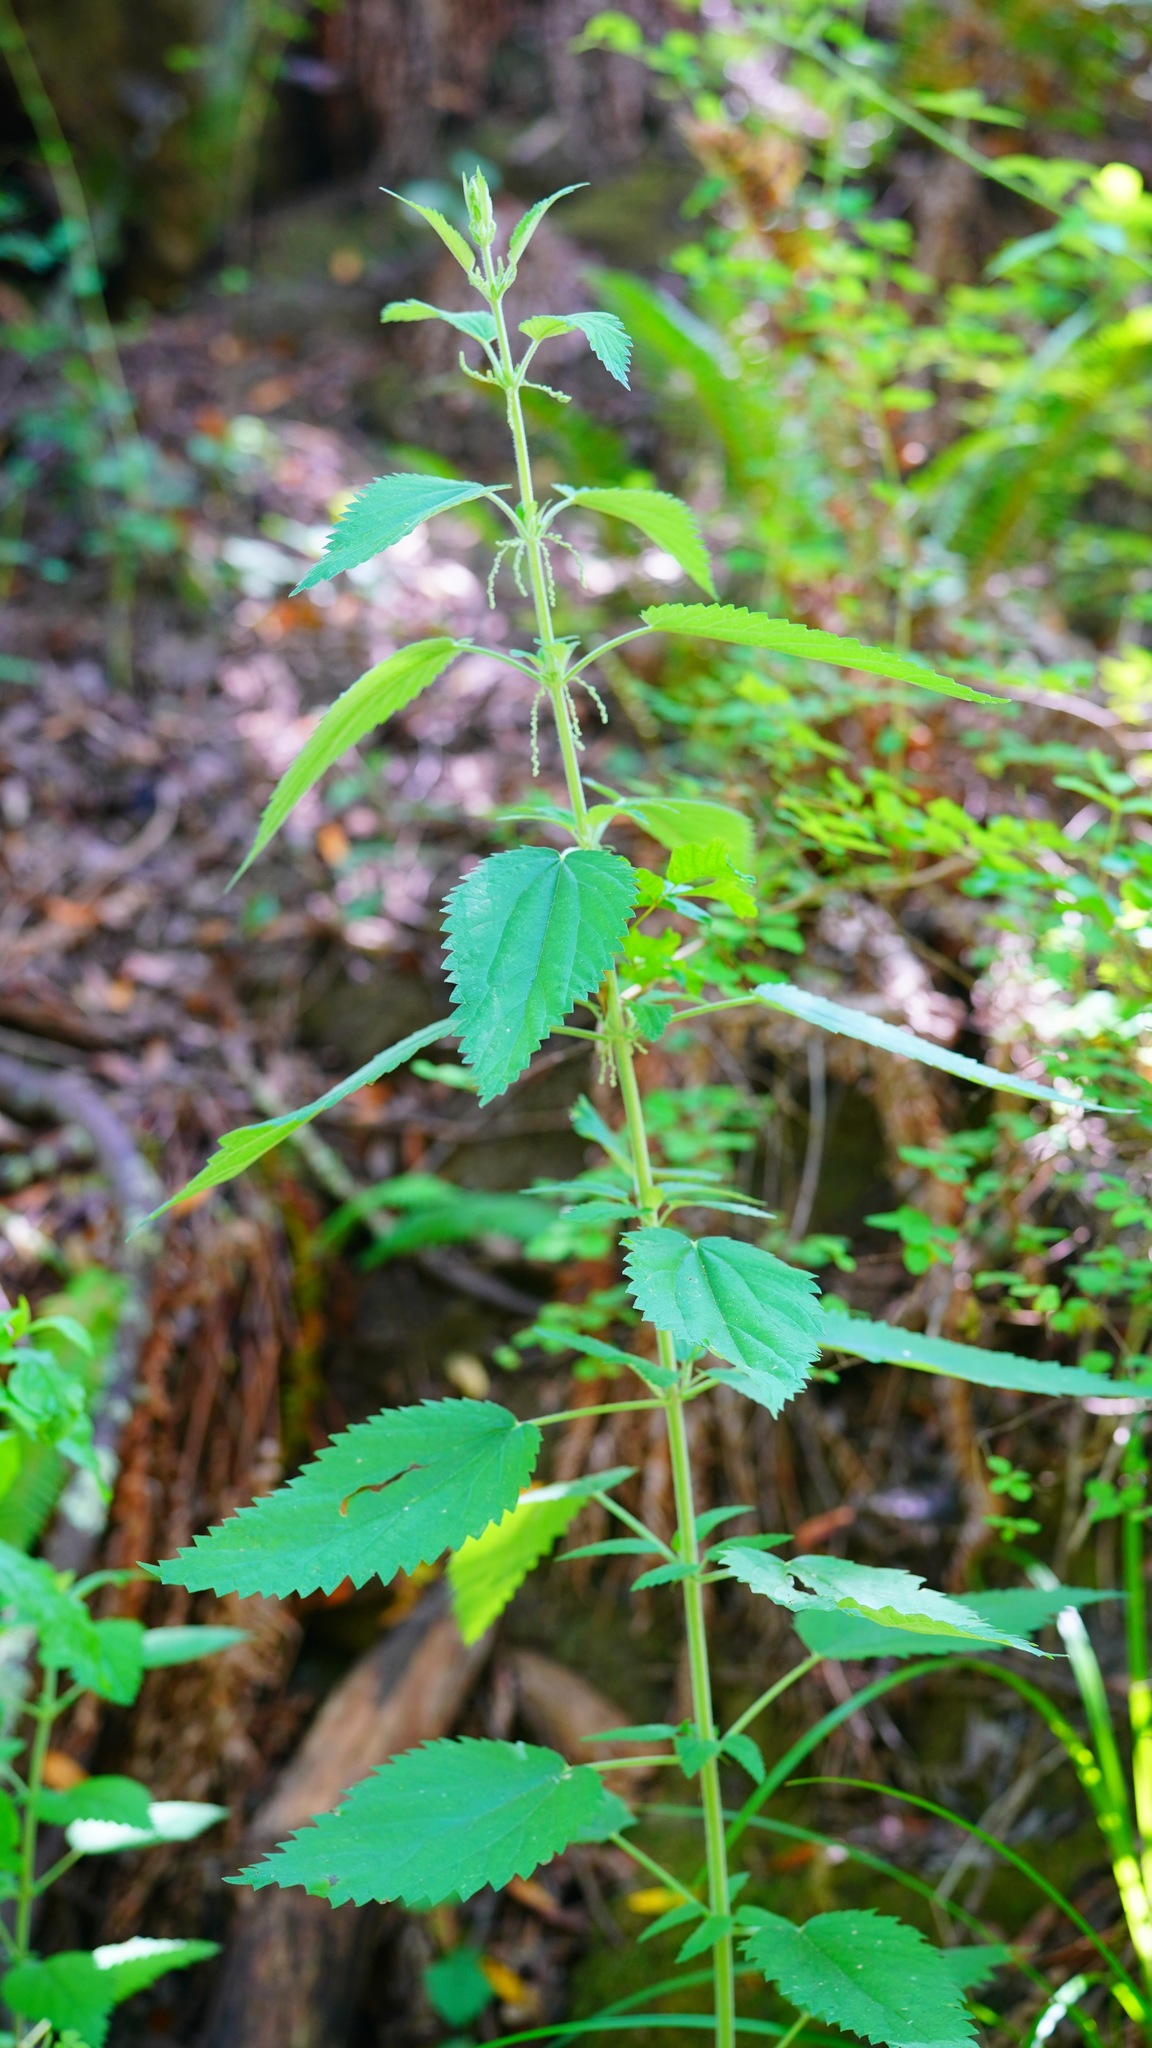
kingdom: Plantae
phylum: Tracheophyta
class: Magnoliopsida
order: Rosales
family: Urticaceae
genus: Urtica
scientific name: Urtica dioica
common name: Common nettle
